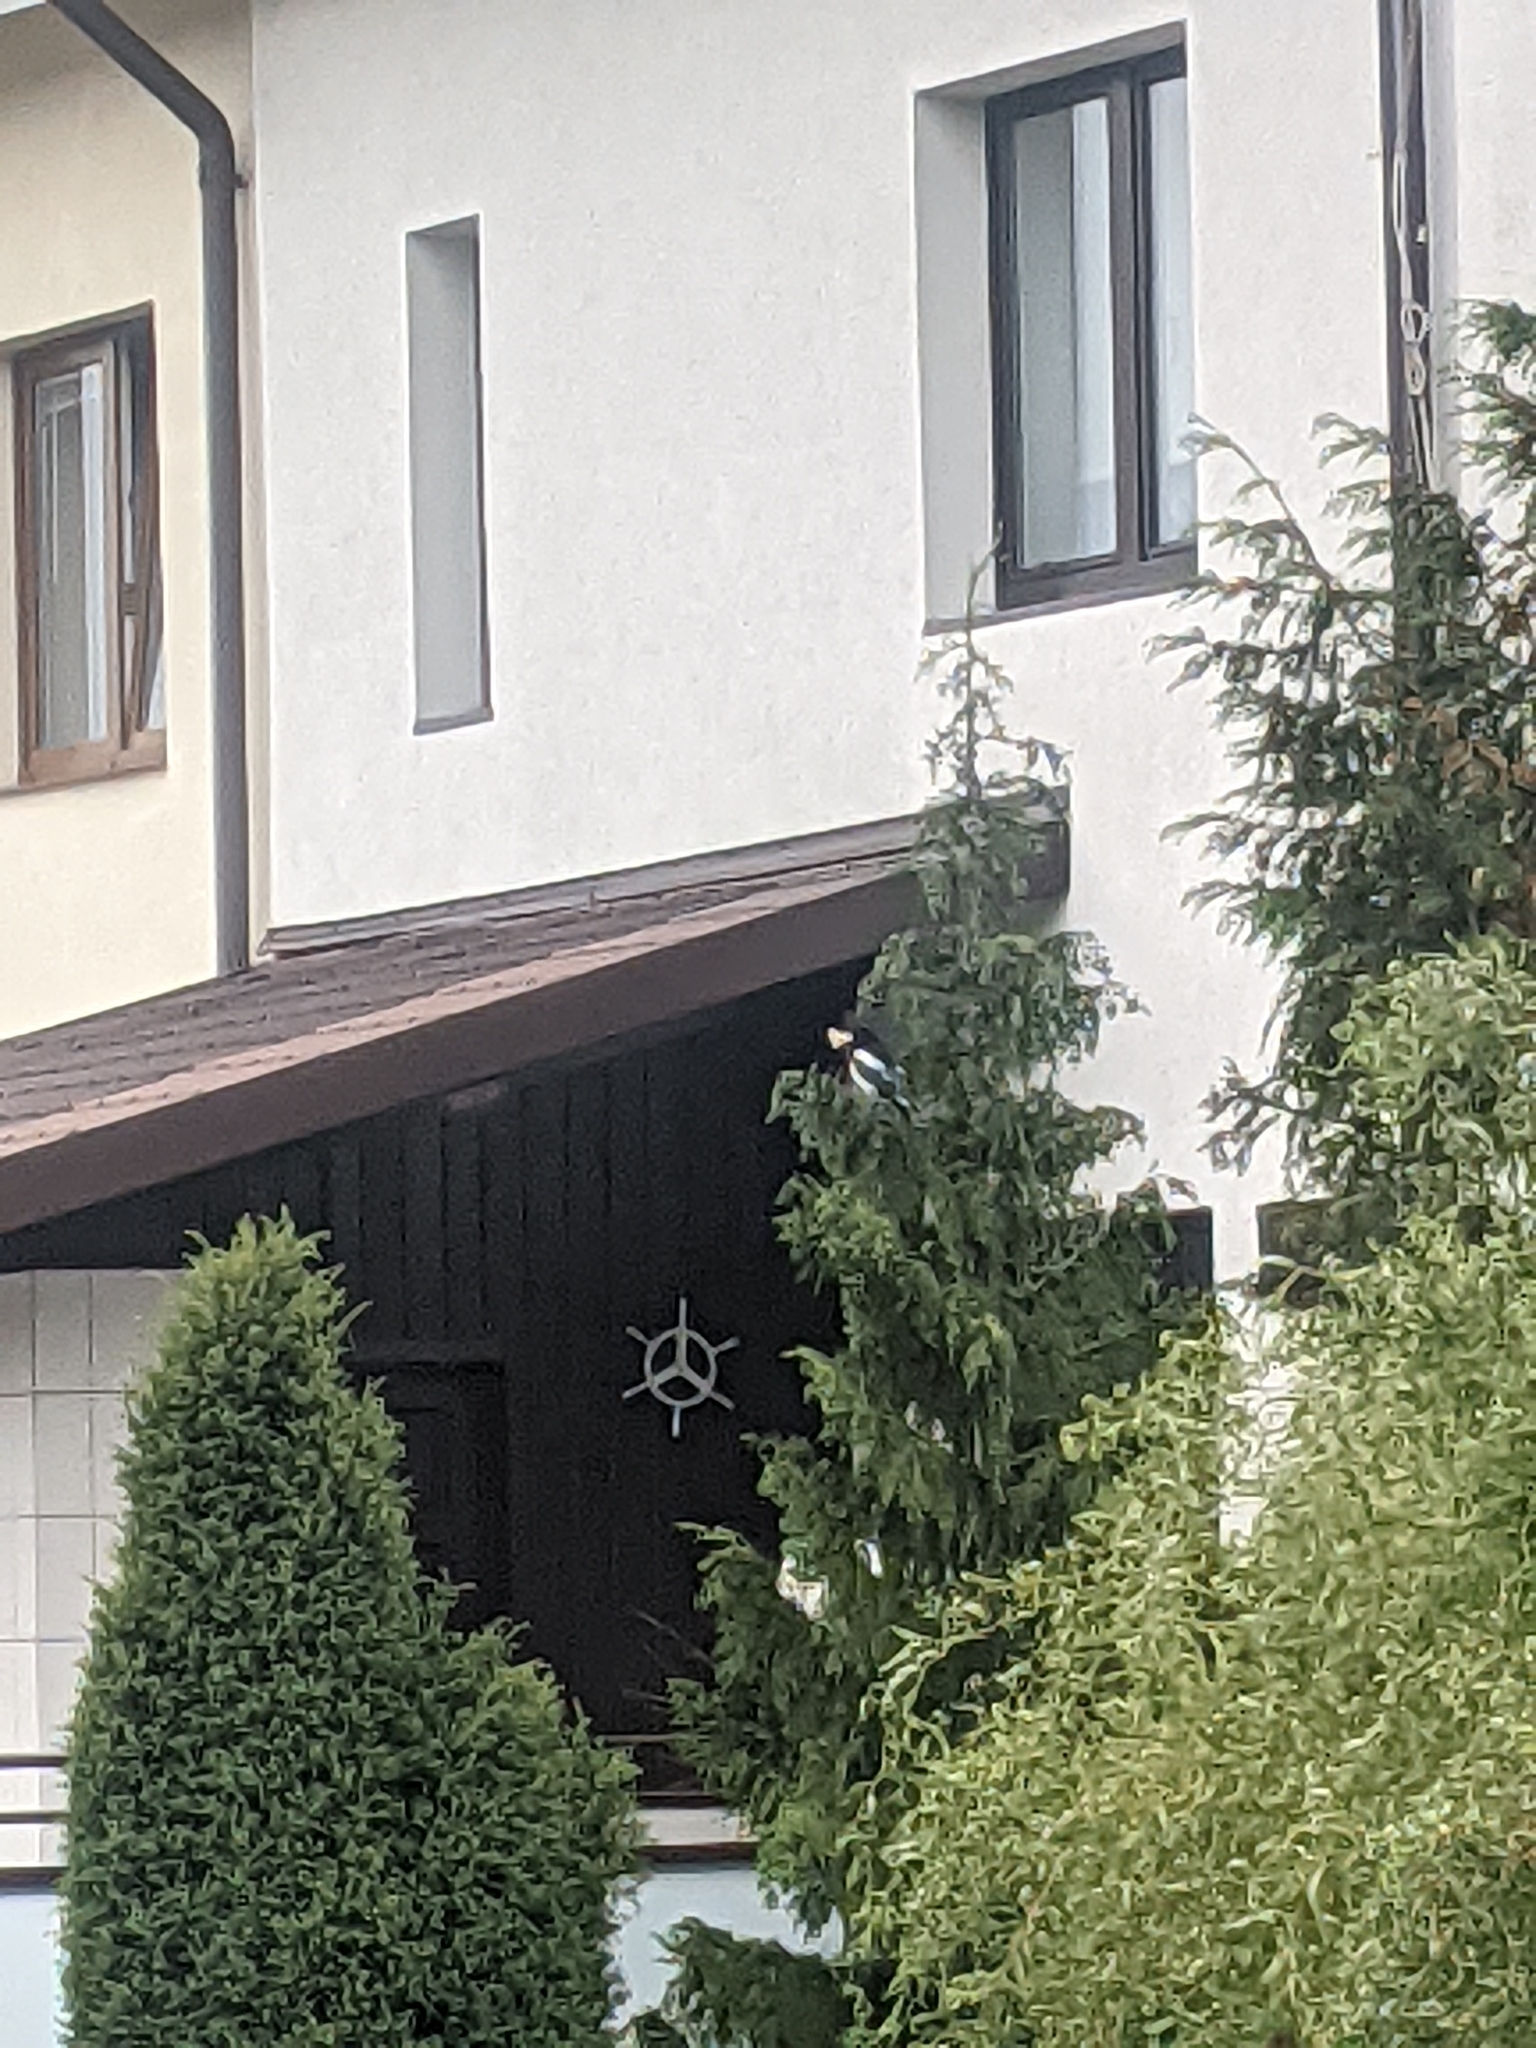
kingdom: Animalia
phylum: Chordata
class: Aves
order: Passeriformes
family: Corvidae
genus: Pica
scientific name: Pica pica
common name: Eurasian magpie
